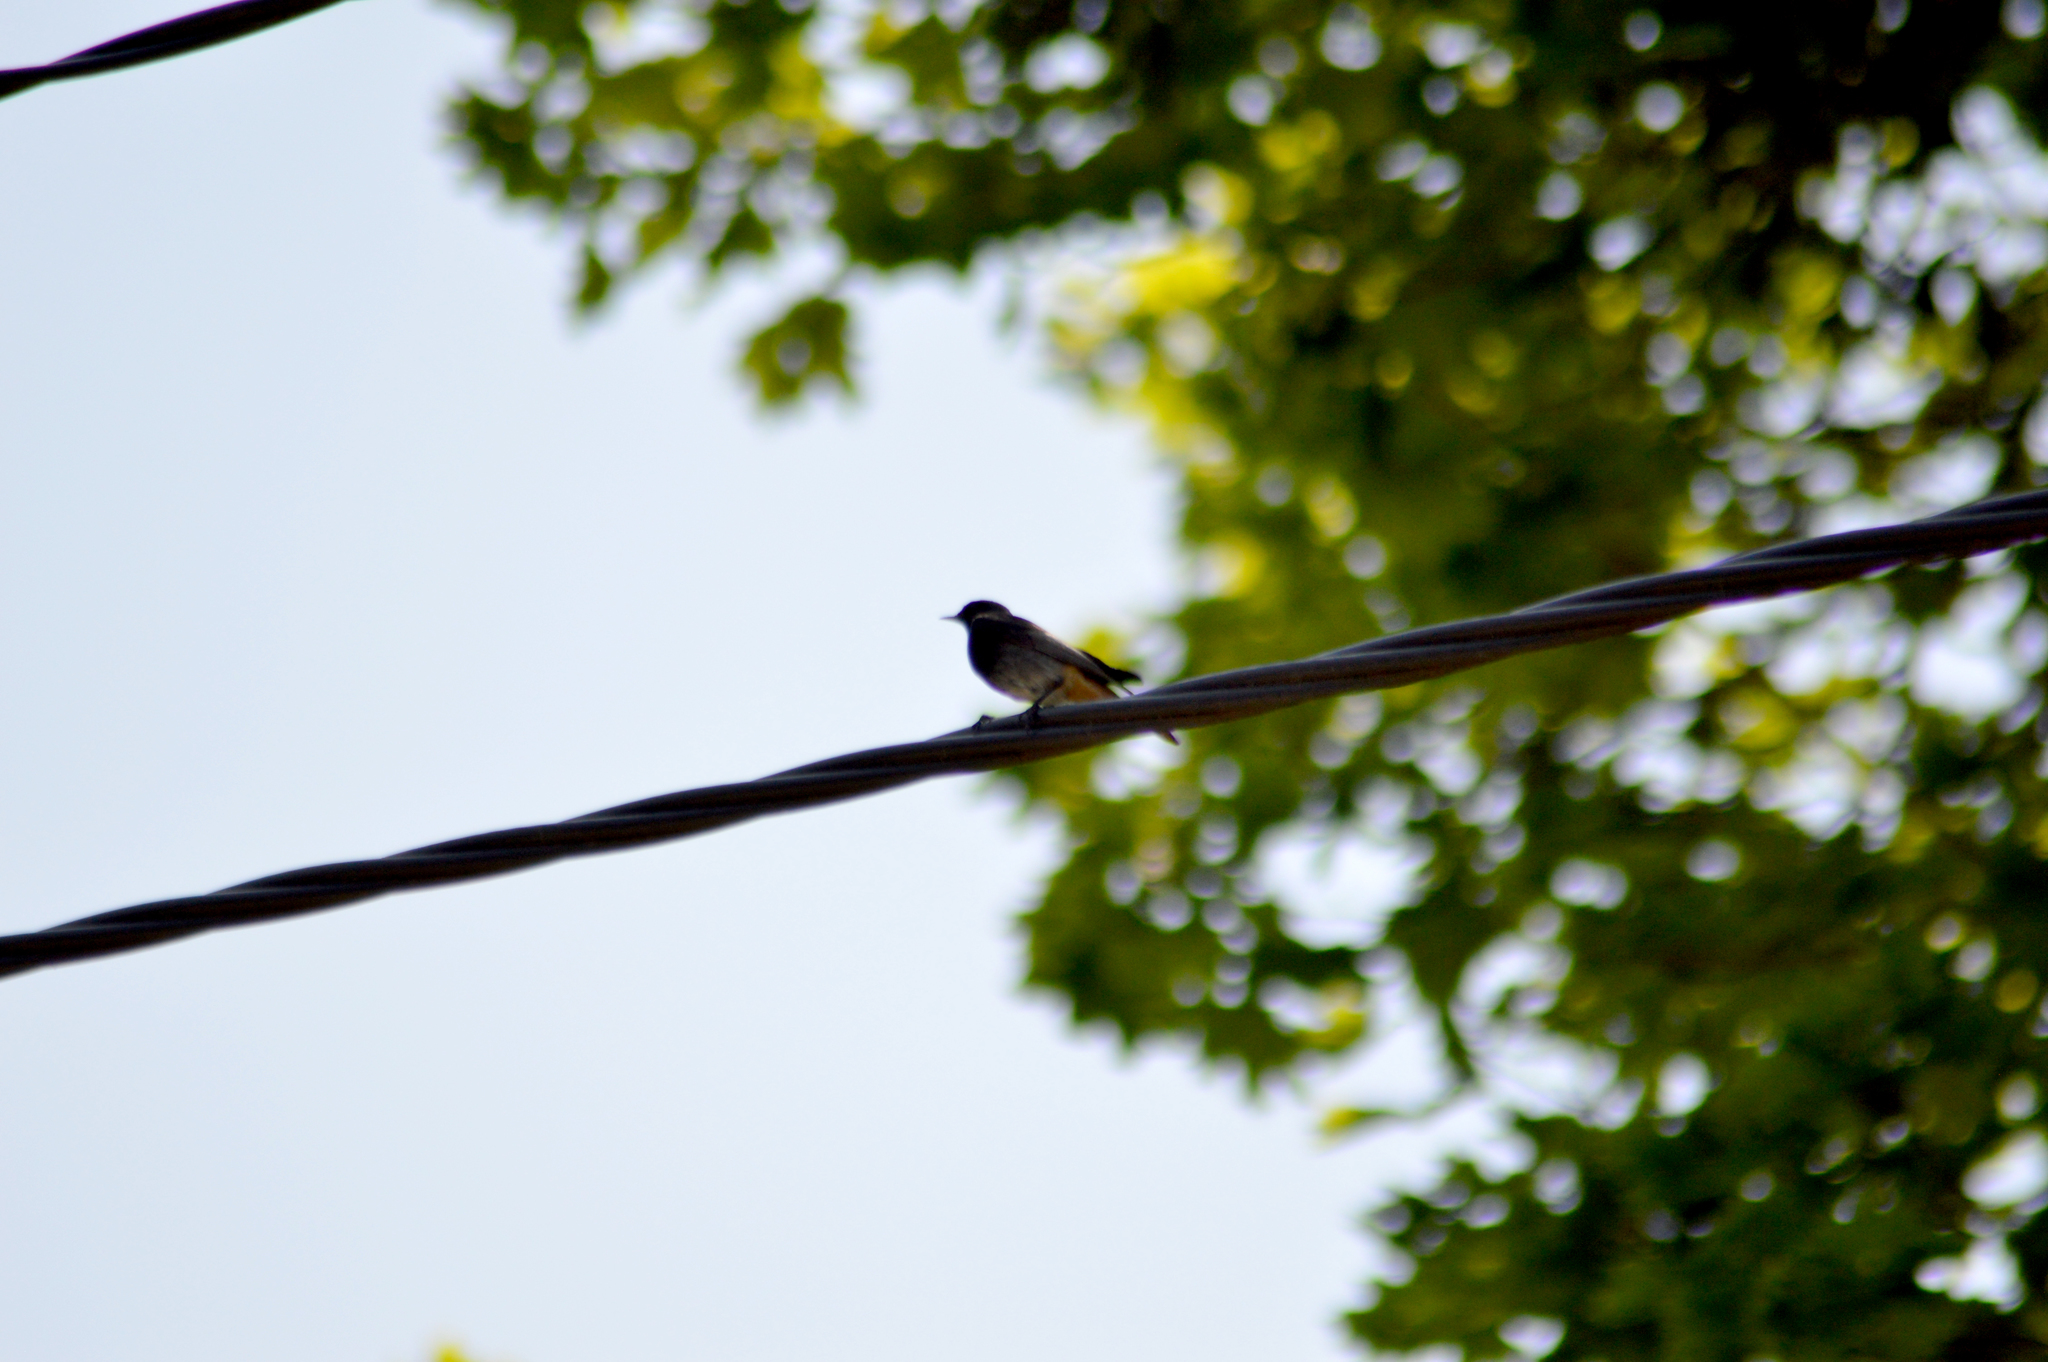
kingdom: Animalia
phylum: Chordata
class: Aves
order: Passeriformes
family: Muscicapidae
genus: Phoenicurus
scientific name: Phoenicurus ochruros
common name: Black redstart
